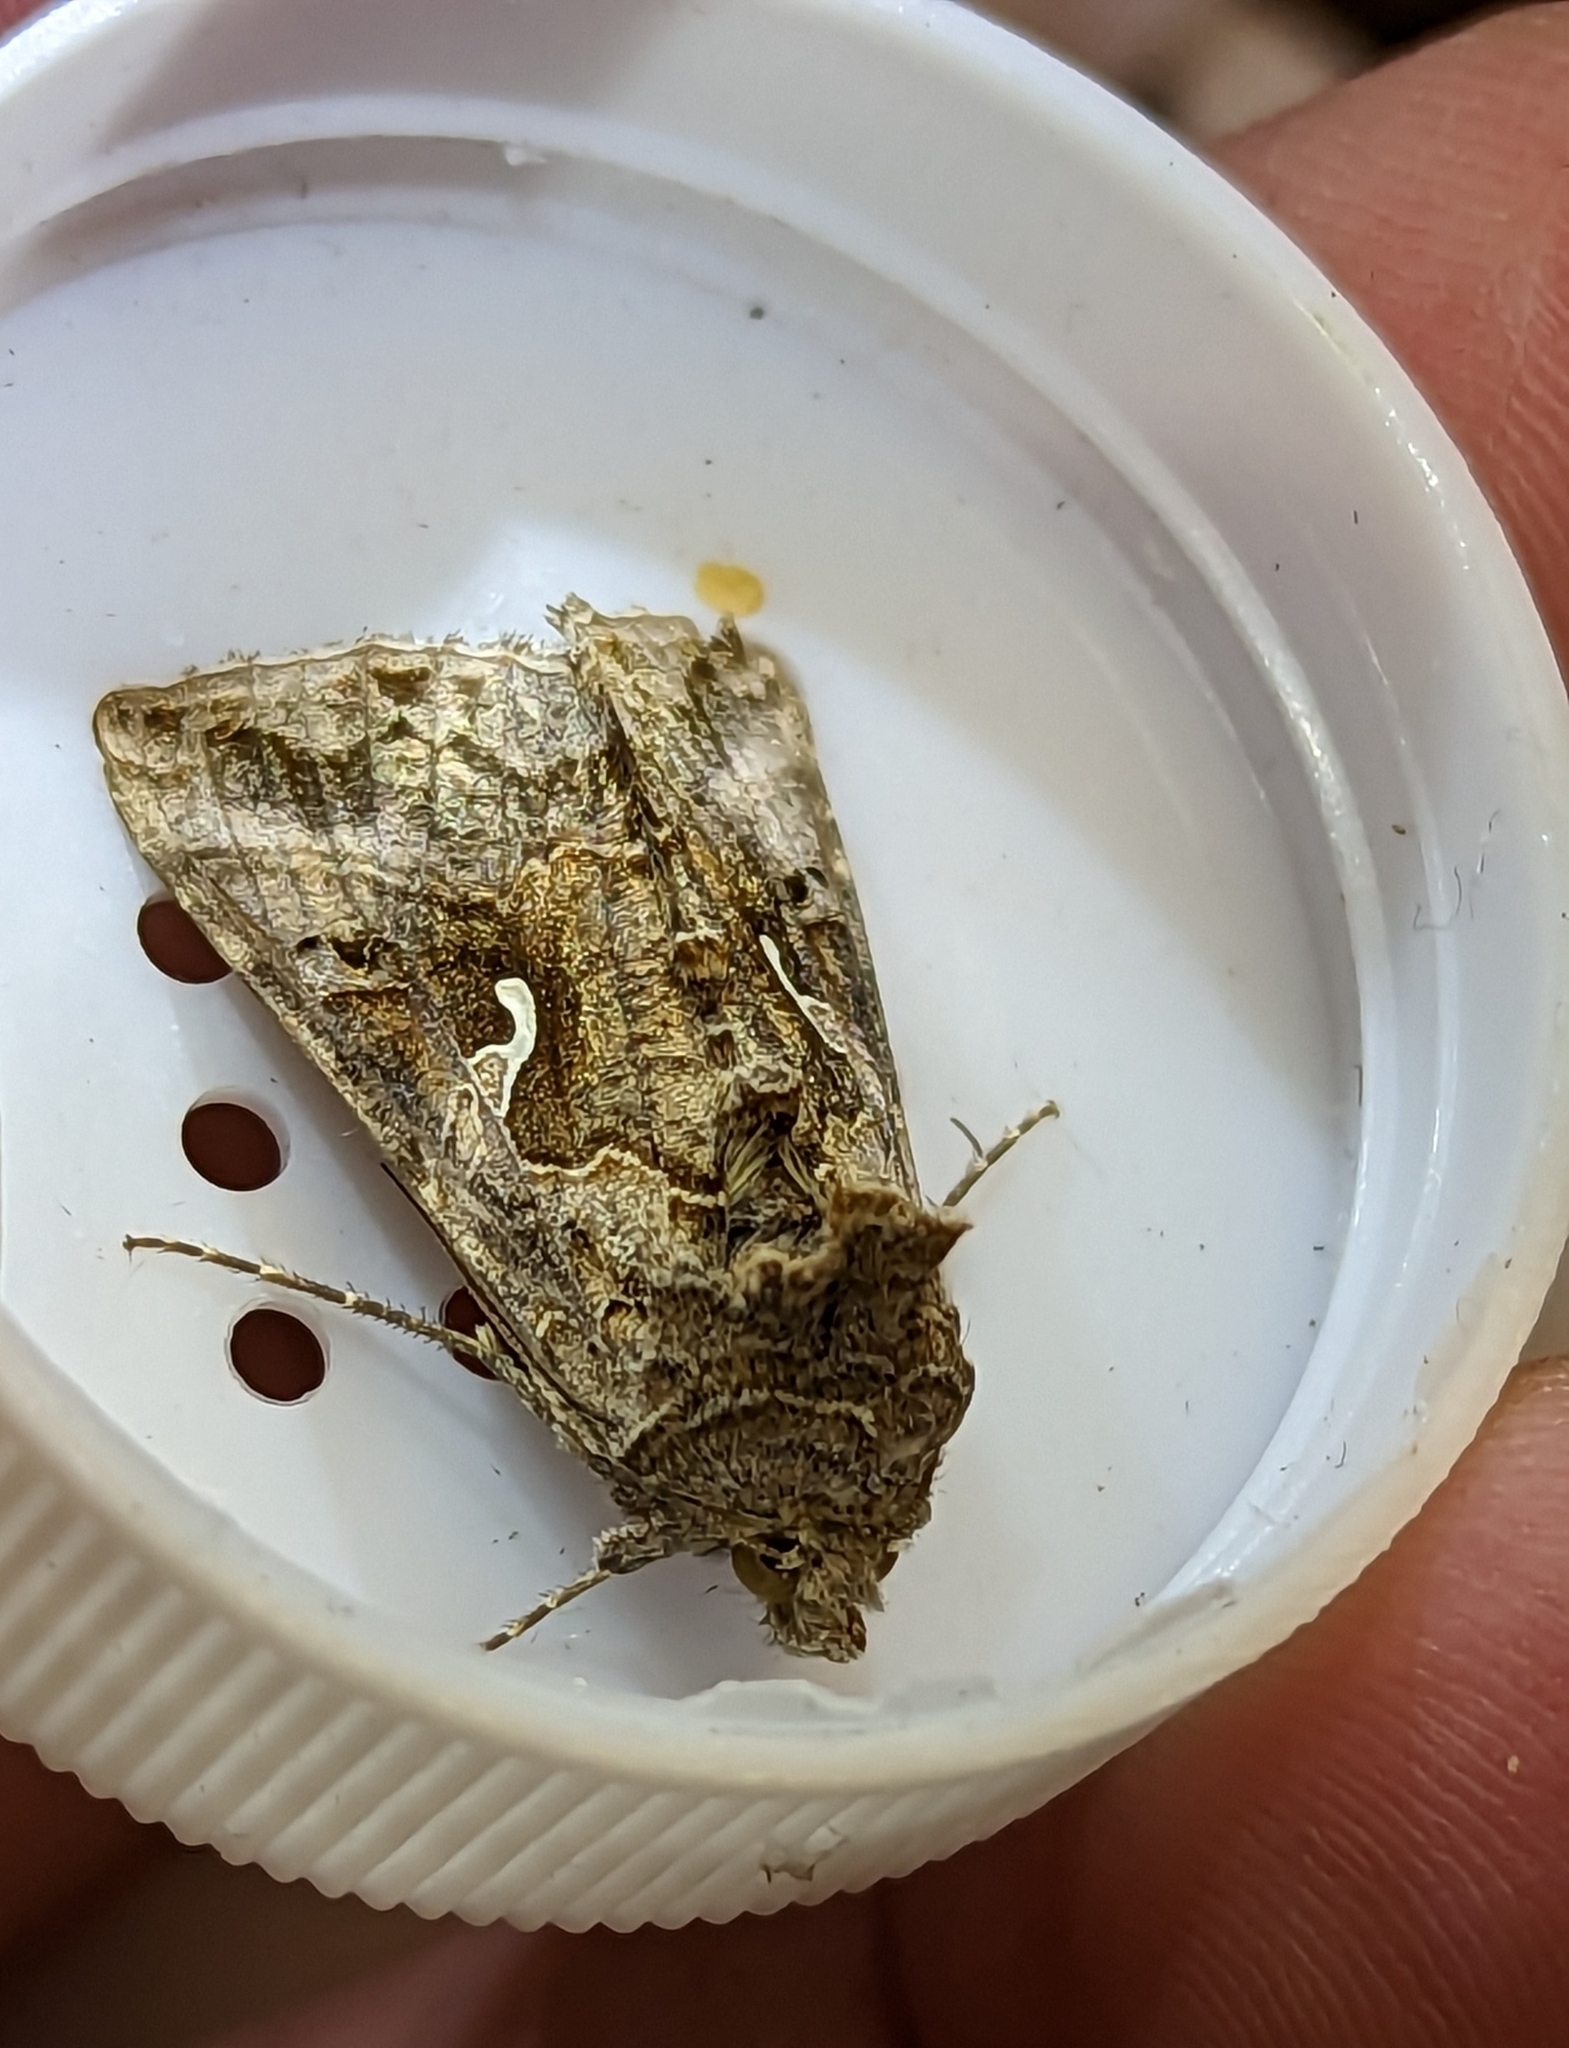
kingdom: Animalia
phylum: Arthropoda
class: Insecta
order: Lepidoptera
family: Noctuidae
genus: Autographa
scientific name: Autographa gamma
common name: Silver y
